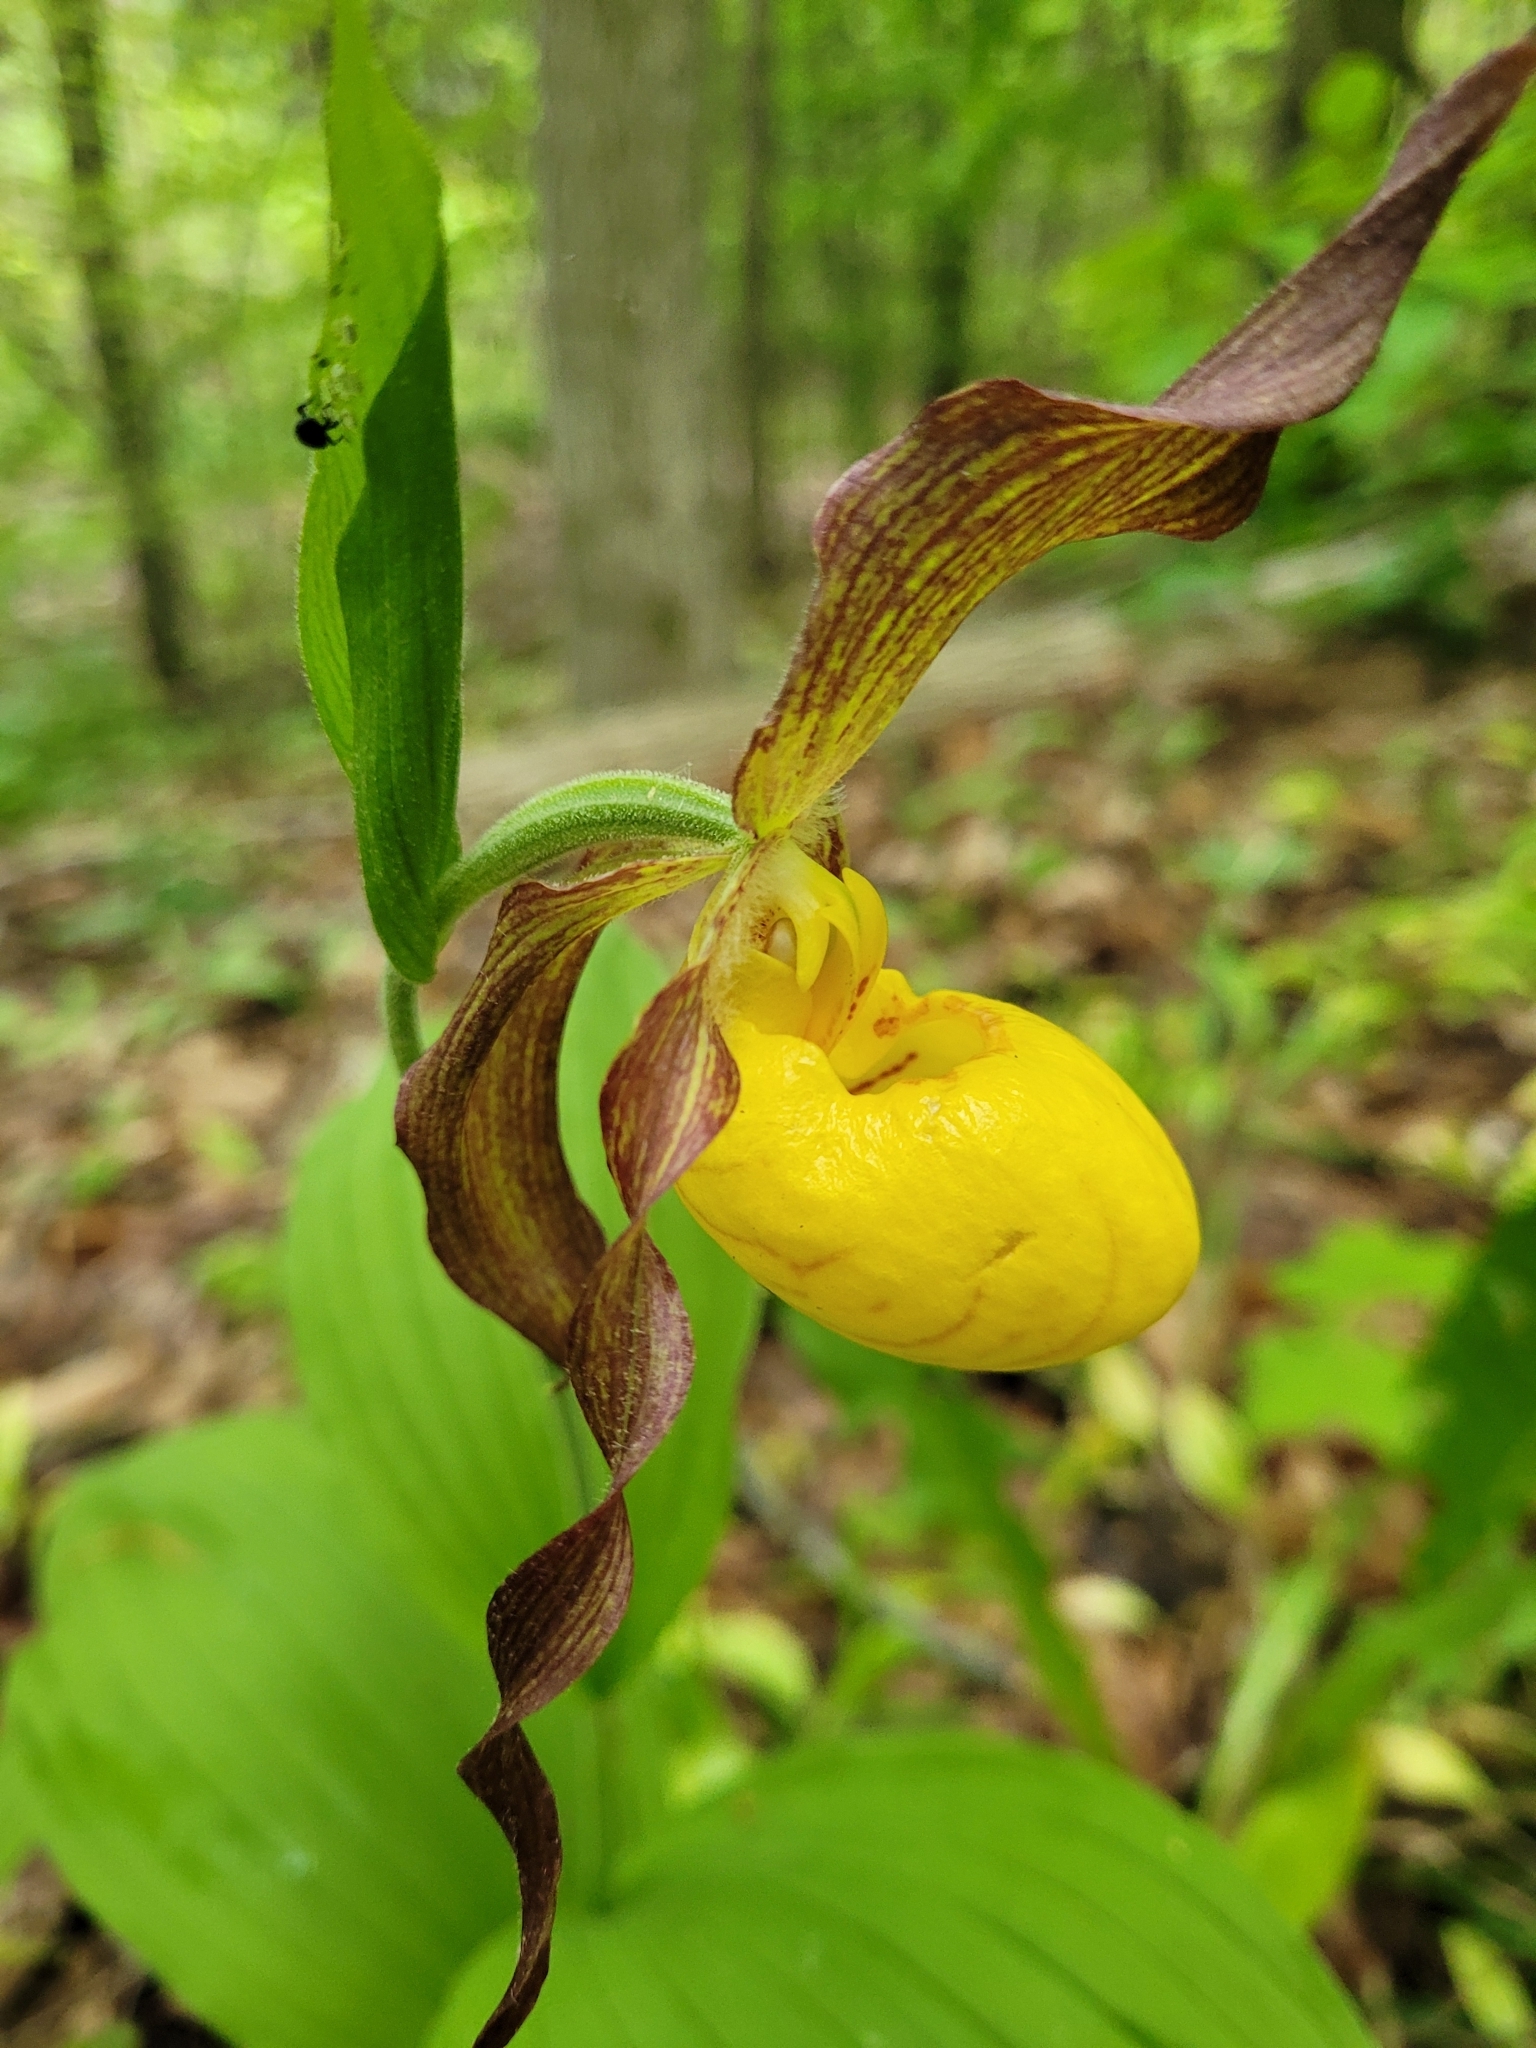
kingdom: Plantae
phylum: Tracheophyta
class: Liliopsida
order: Asparagales
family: Orchidaceae
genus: Cypripedium
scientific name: Cypripedium parviflorum
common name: American yellow lady's-slipper
